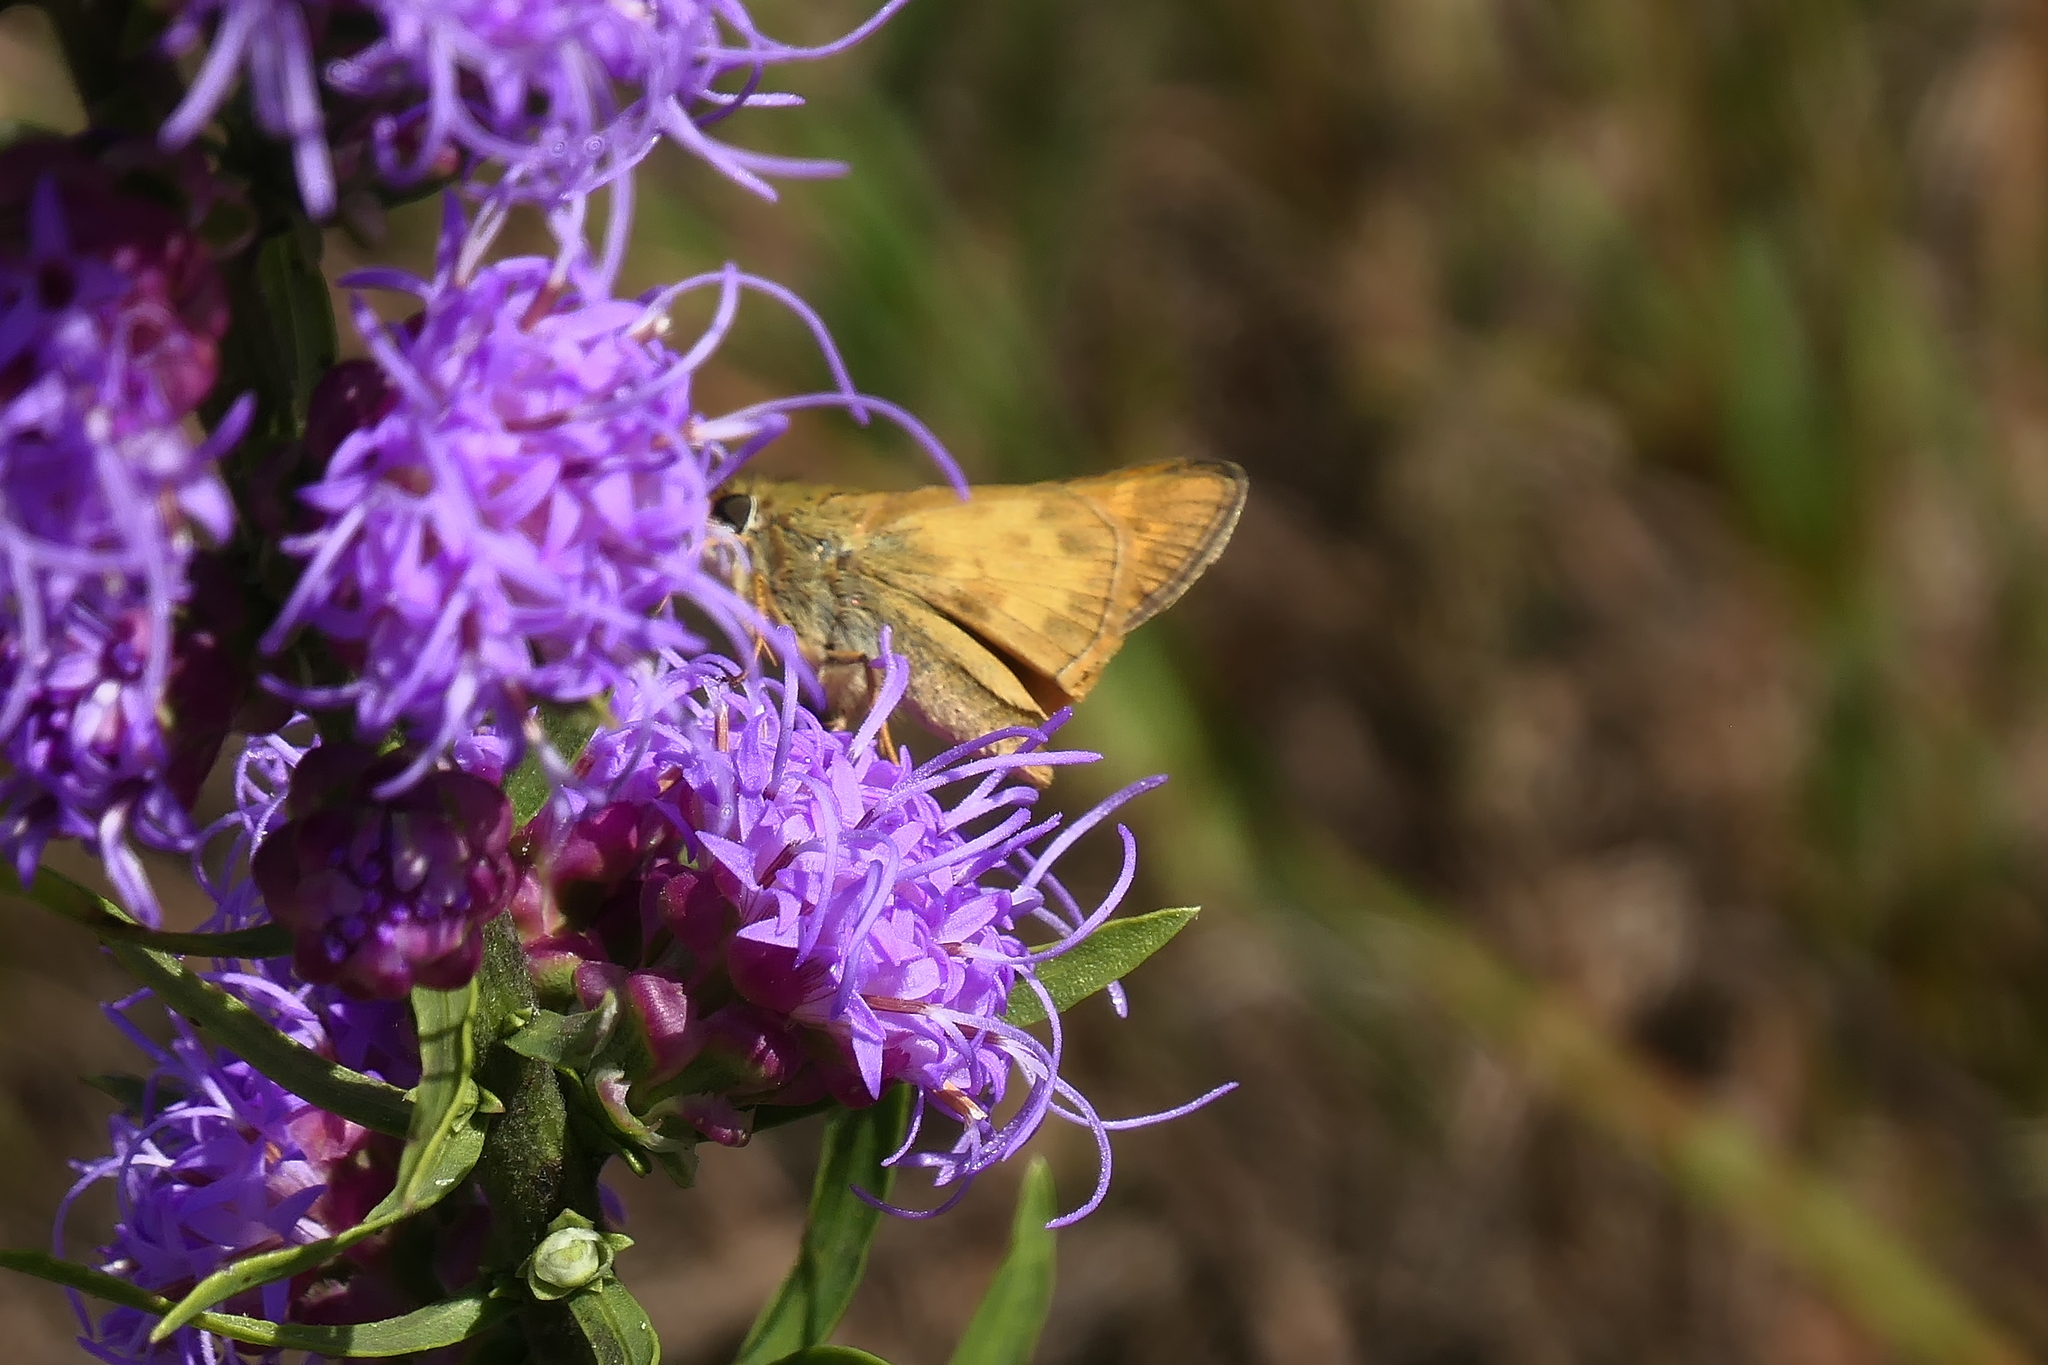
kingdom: Animalia
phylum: Arthropoda
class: Insecta
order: Lepidoptera
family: Hesperiidae
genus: Atalopedes
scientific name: Atalopedes
